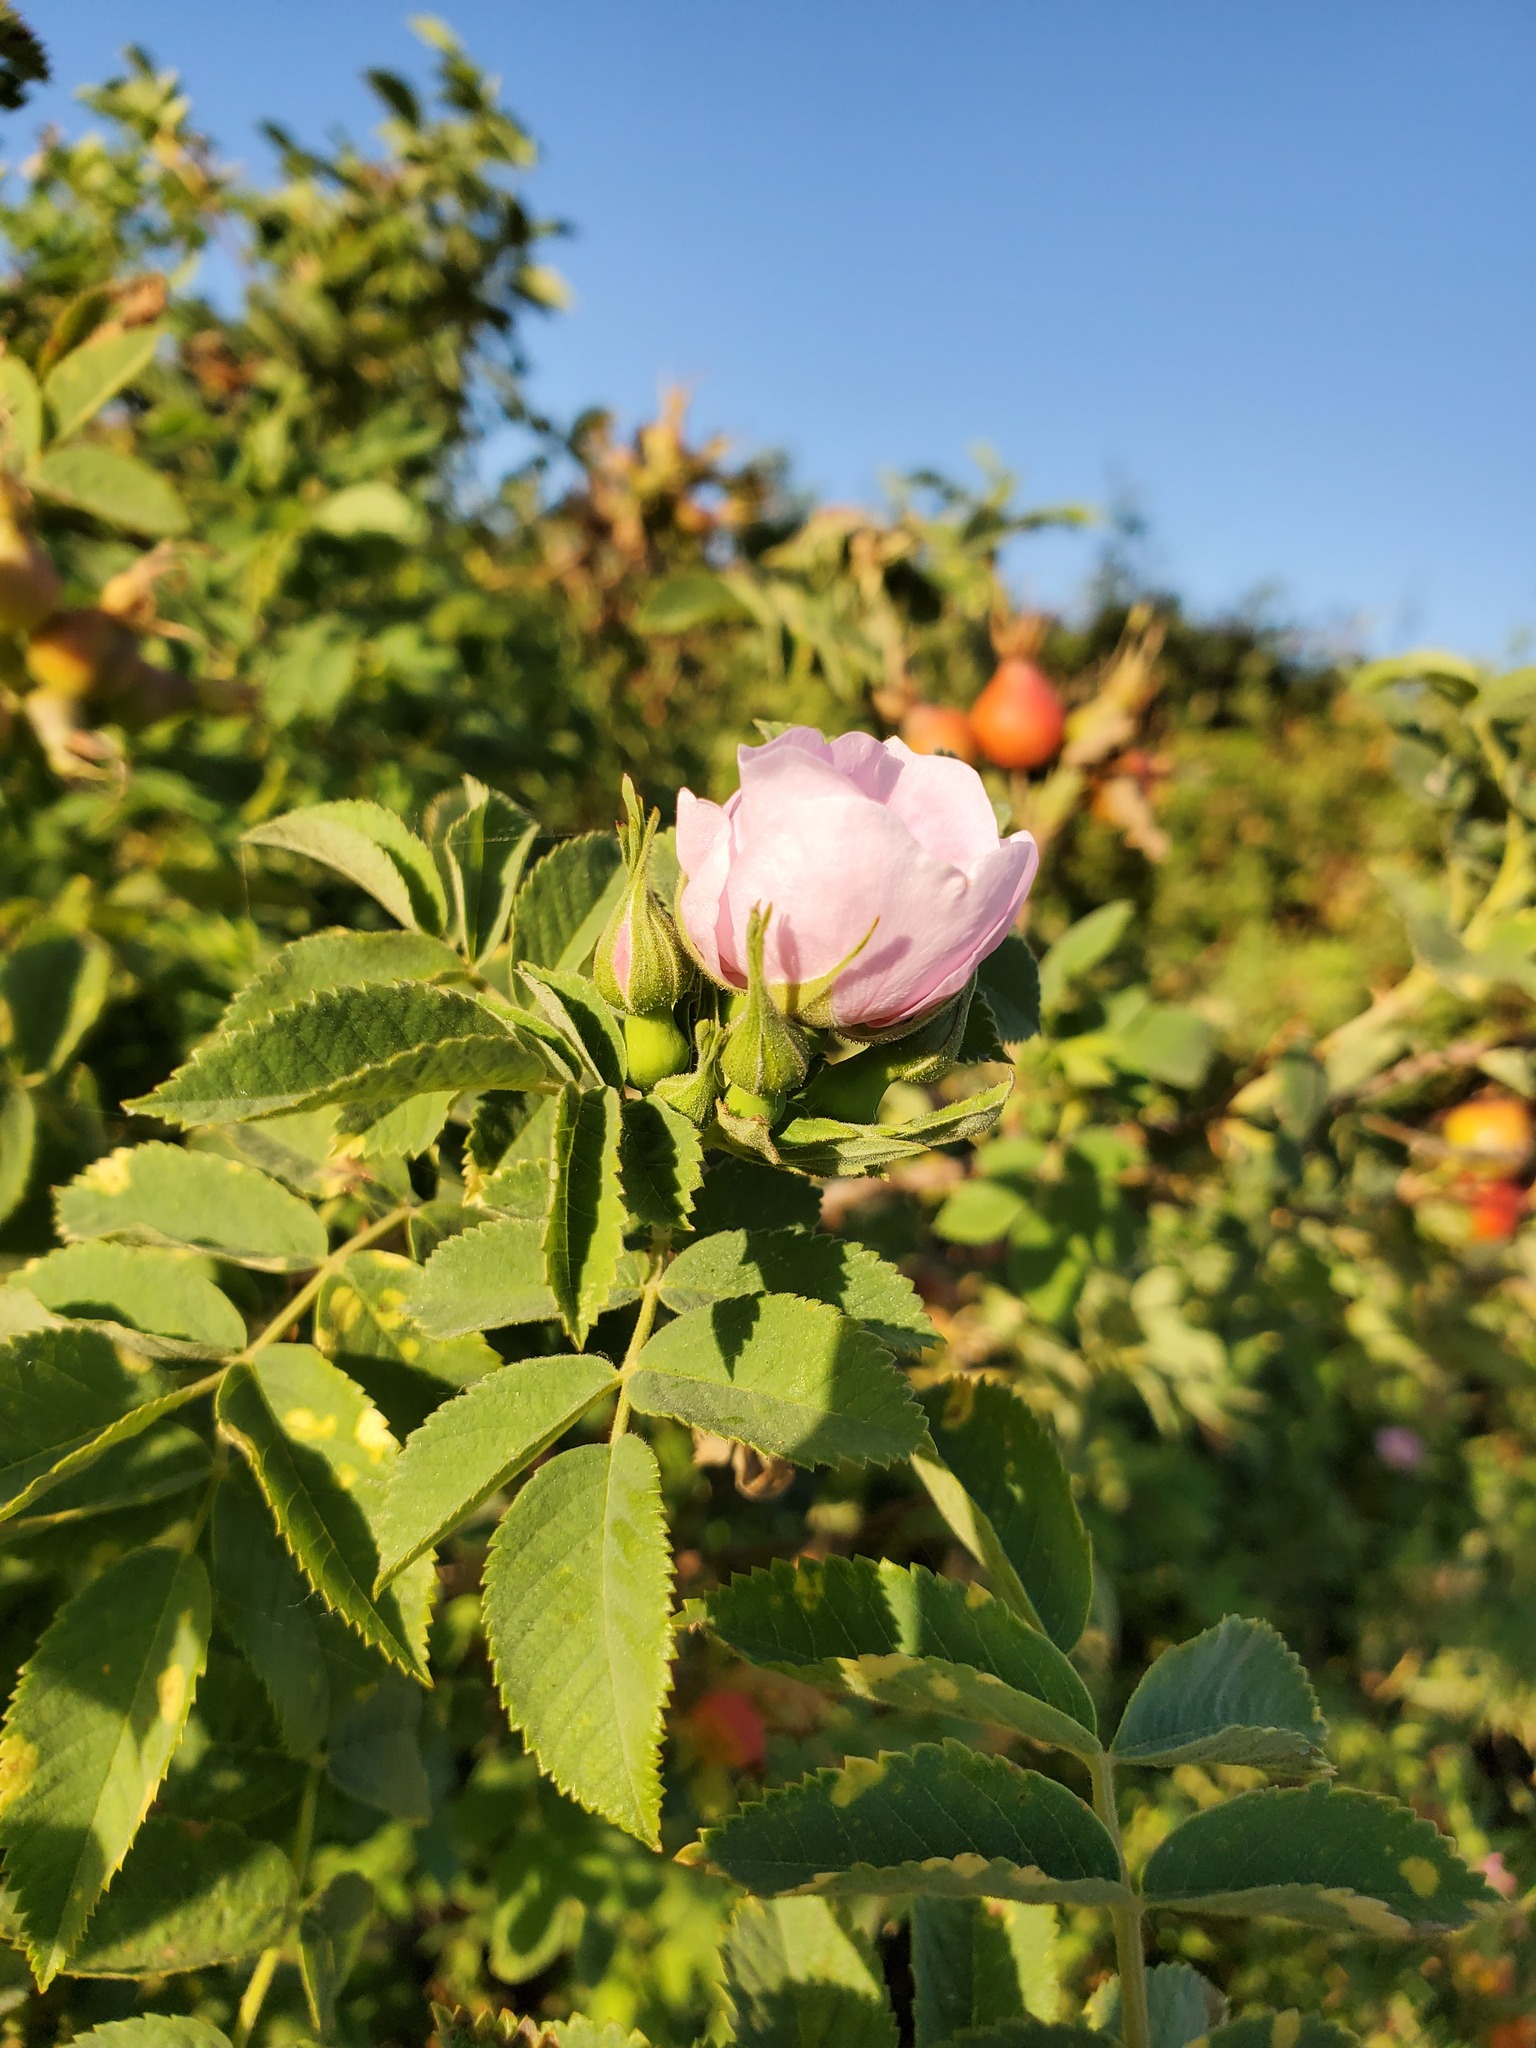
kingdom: Plantae
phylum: Tracheophyta
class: Magnoliopsida
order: Rosales
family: Rosaceae
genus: Rosa
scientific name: Rosa californica
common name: California rose
